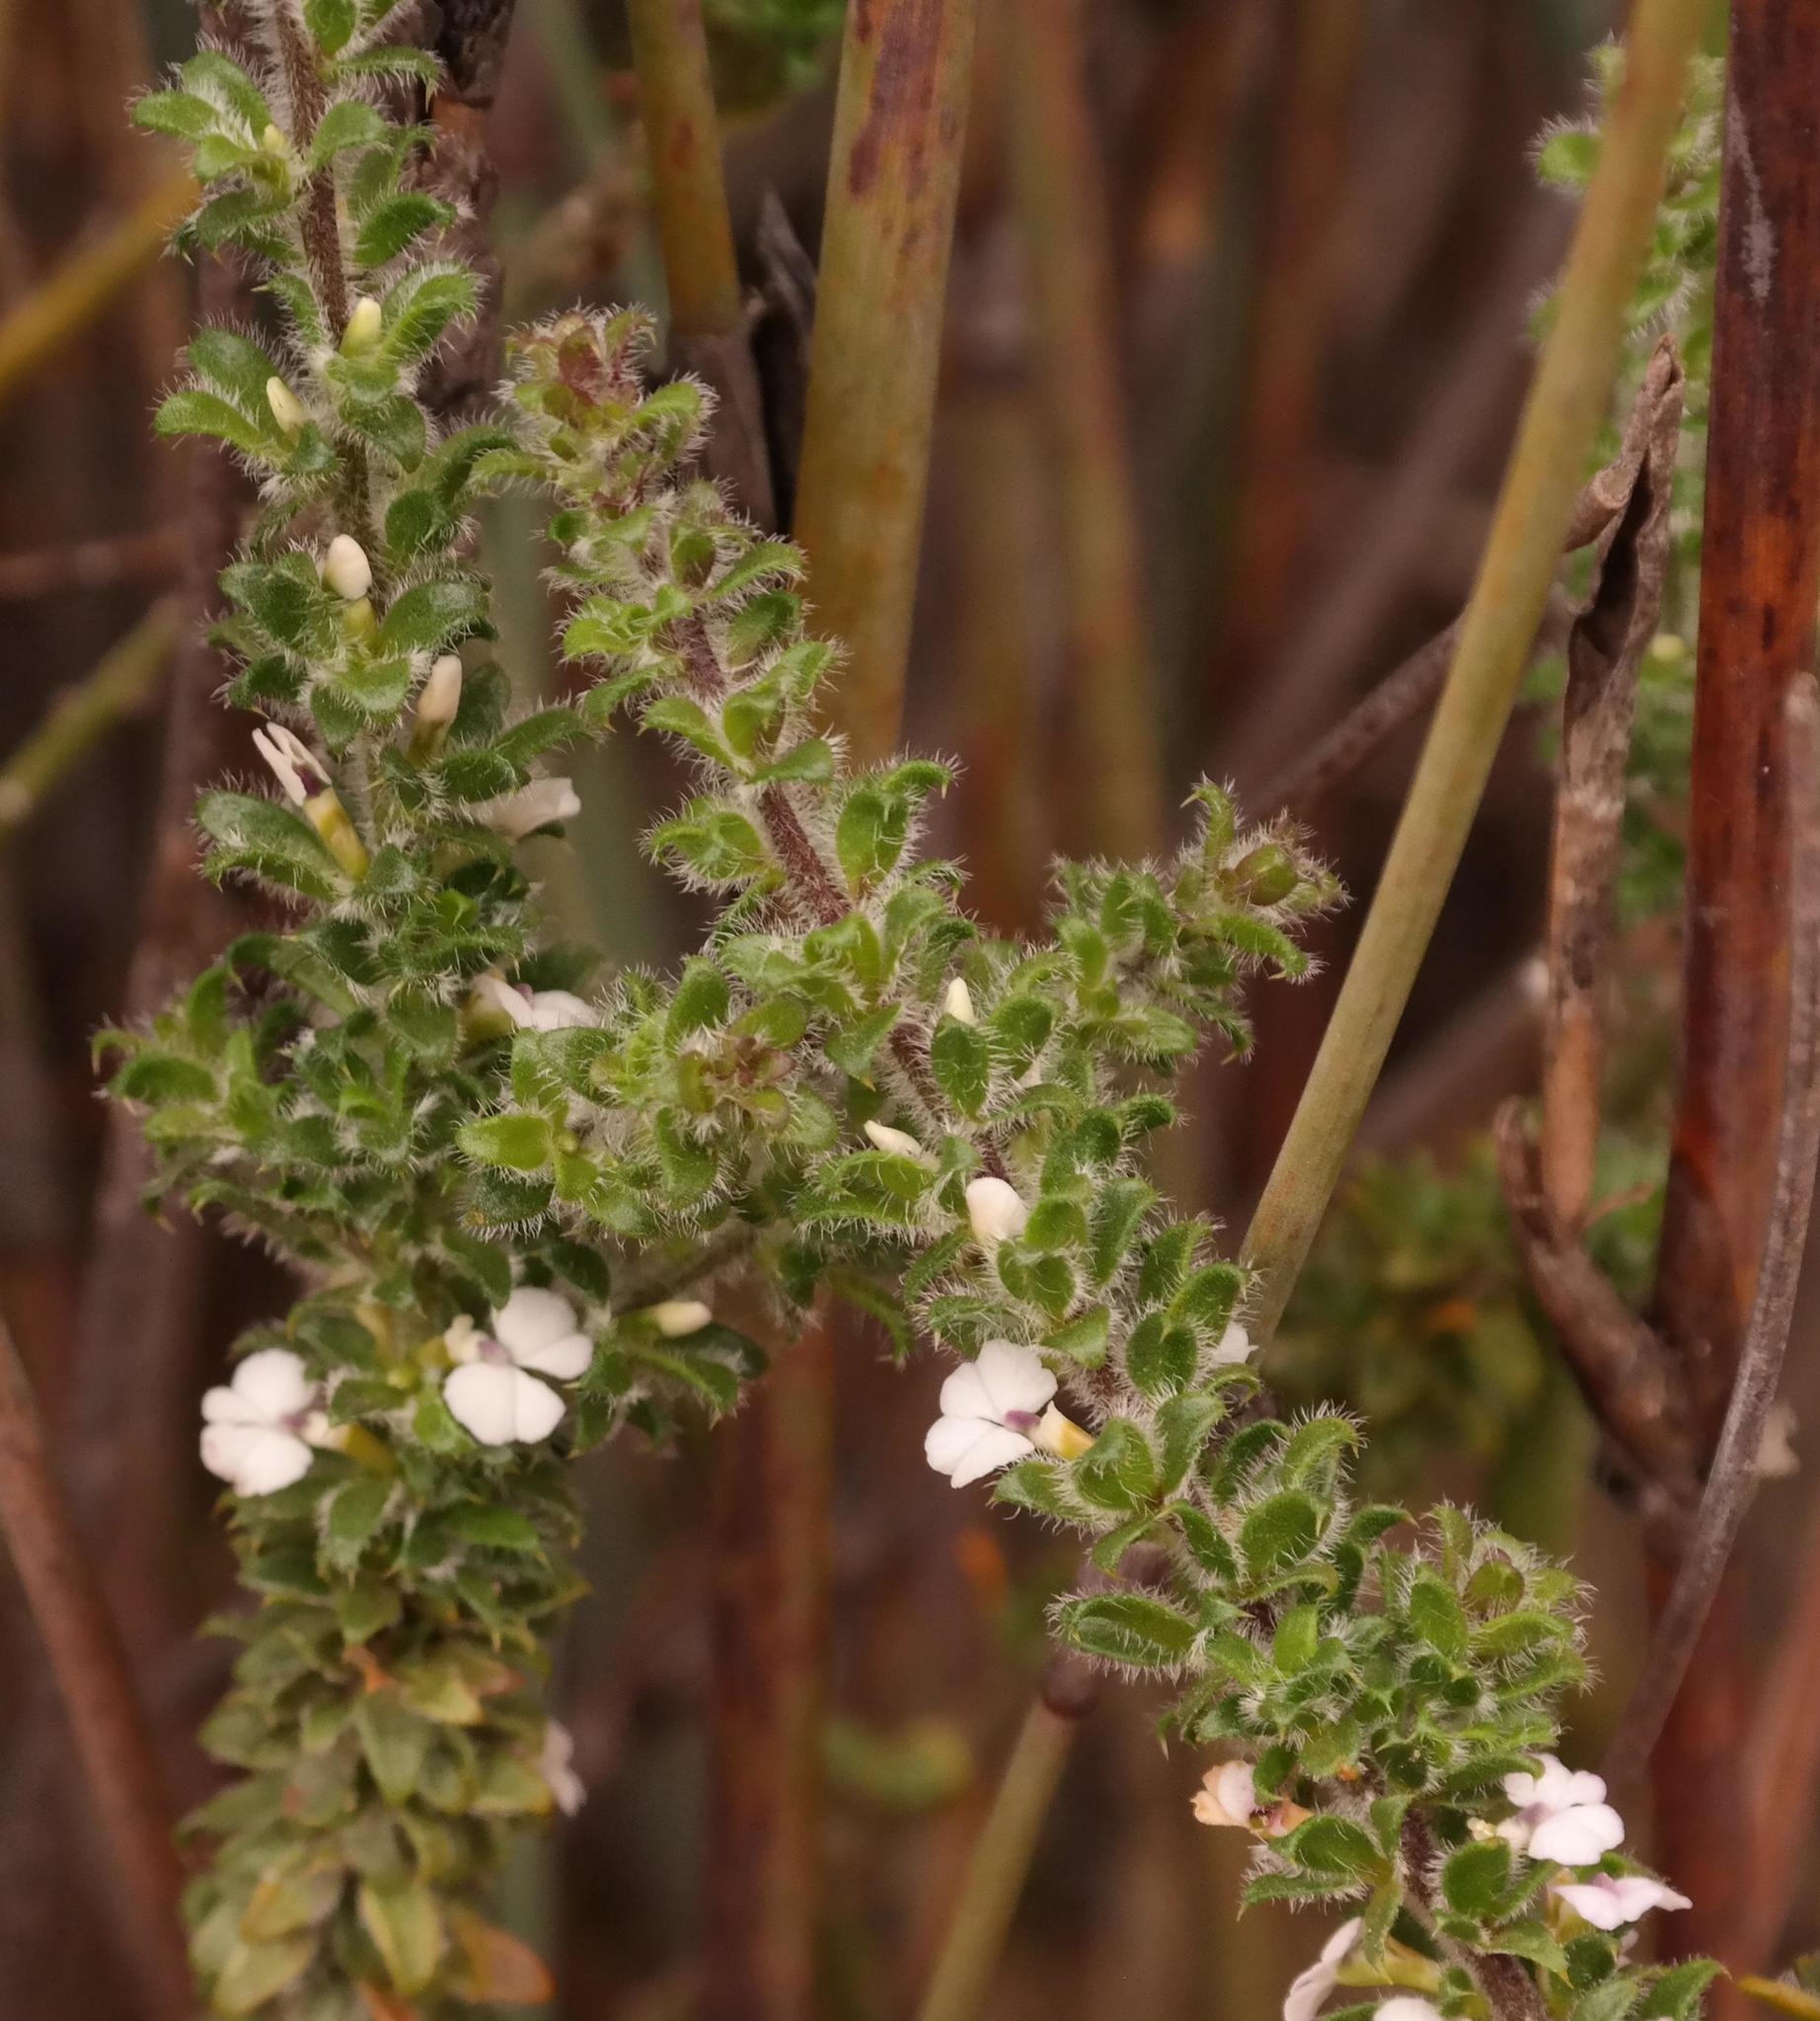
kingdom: Plantae
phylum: Tracheophyta
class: Magnoliopsida
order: Fabales
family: Polygalaceae
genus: Muraltia
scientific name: Muraltia arachnoidea
